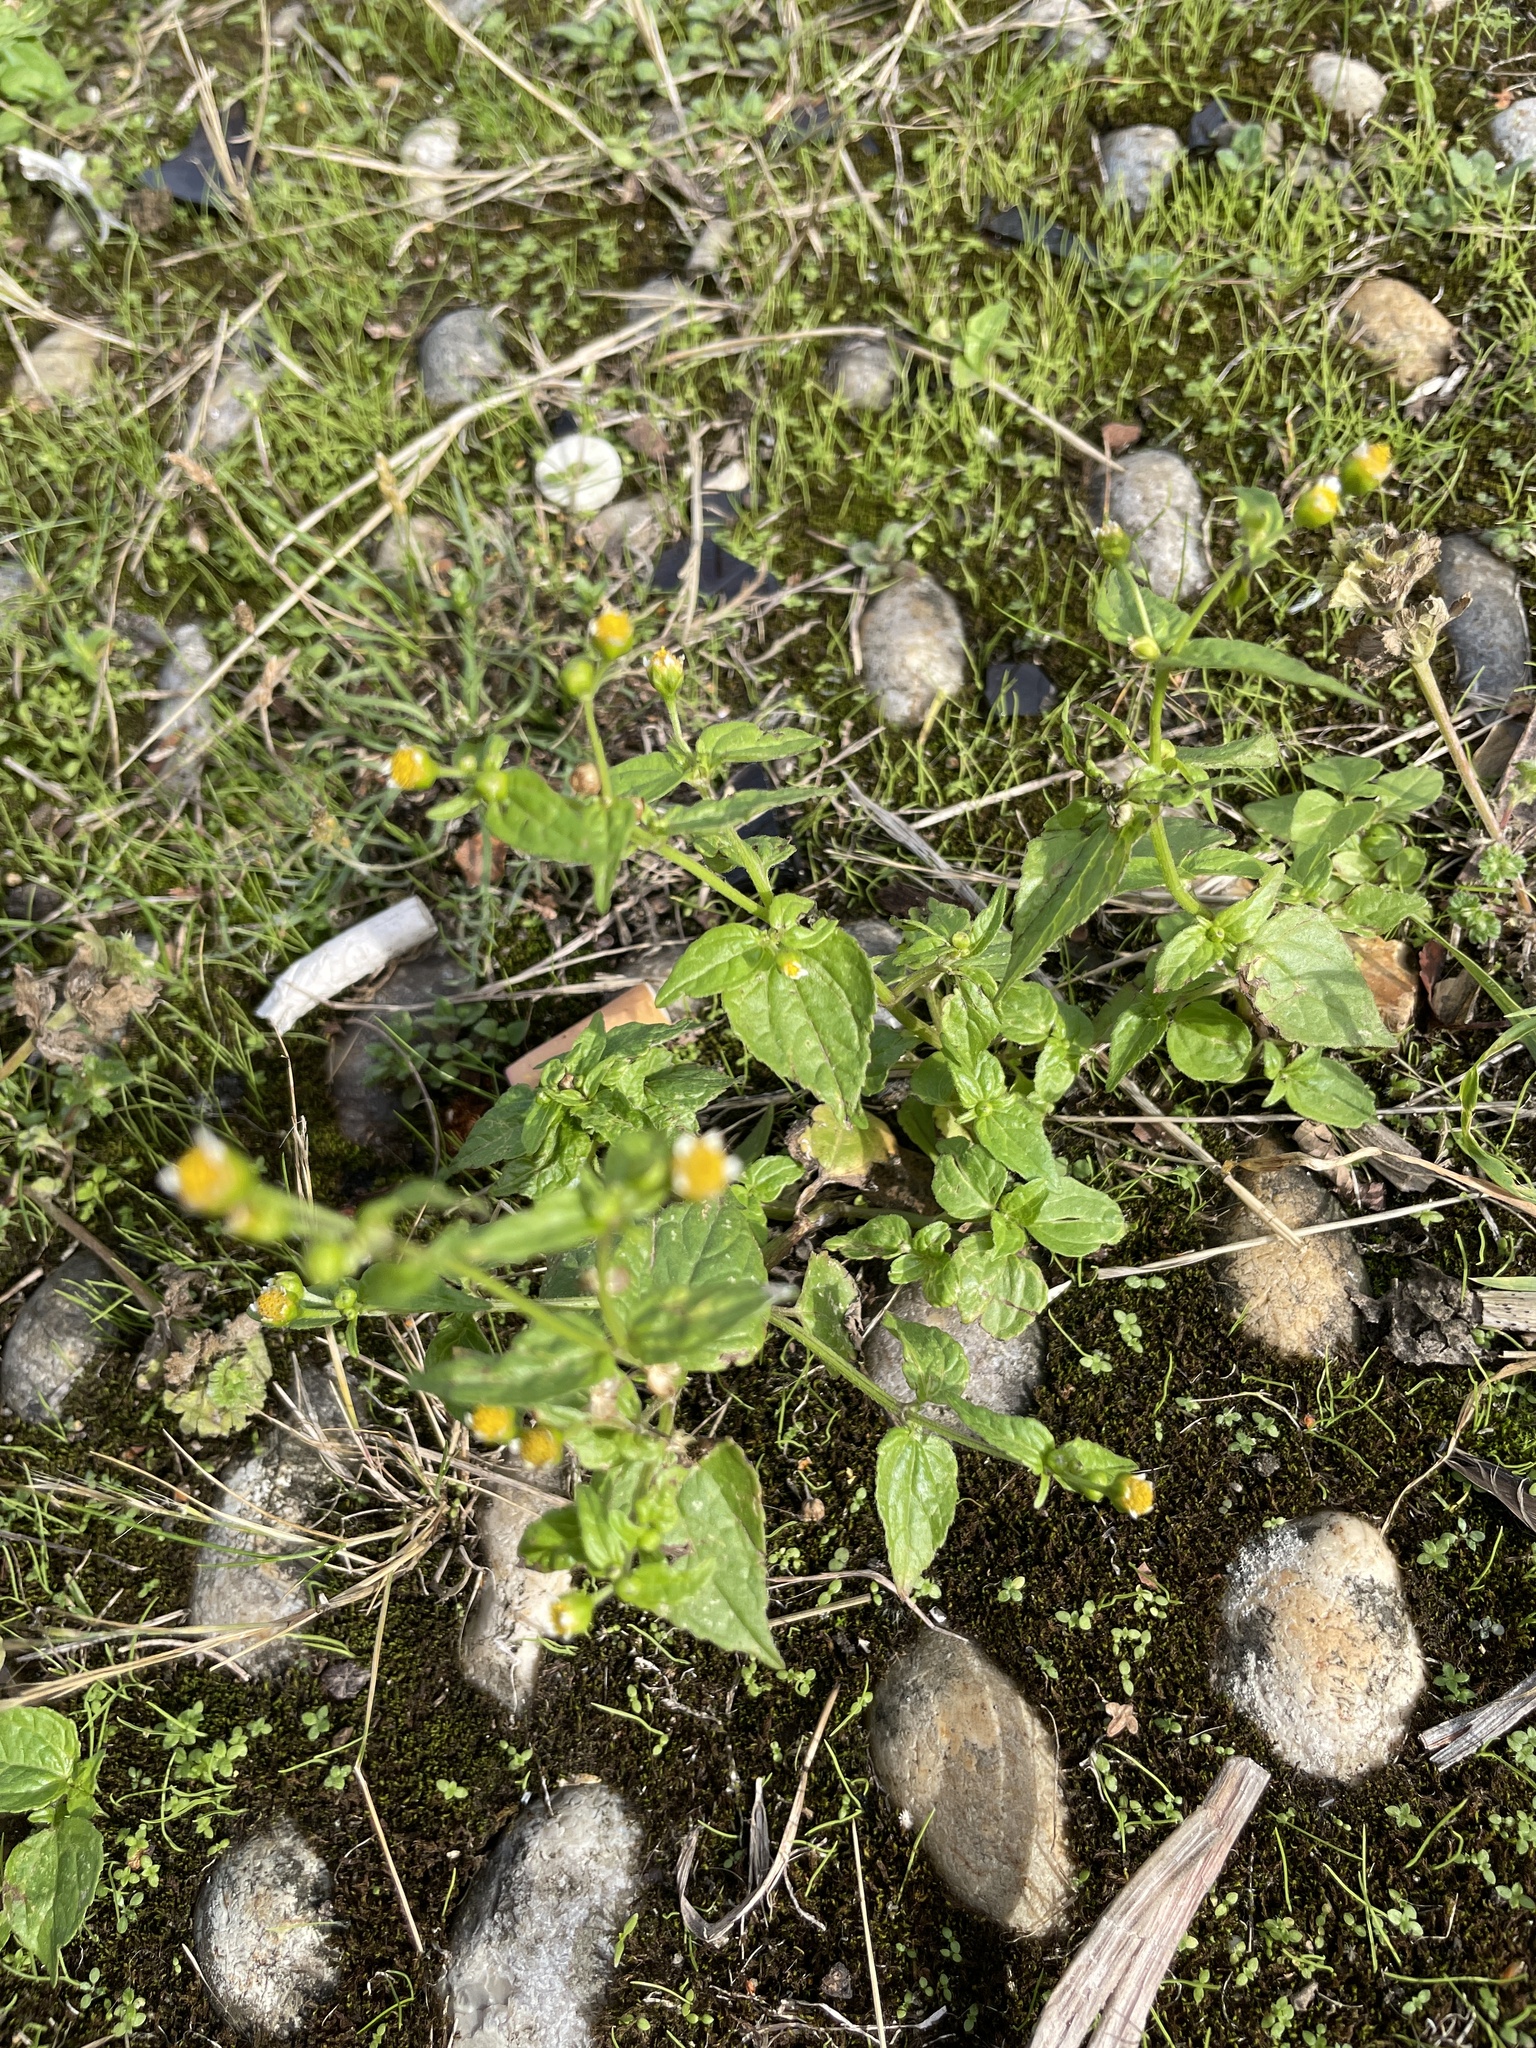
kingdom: Plantae
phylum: Tracheophyta
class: Magnoliopsida
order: Asterales
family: Asteraceae
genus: Galinsoga
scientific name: Galinsoga parviflora
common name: Gallant soldier
